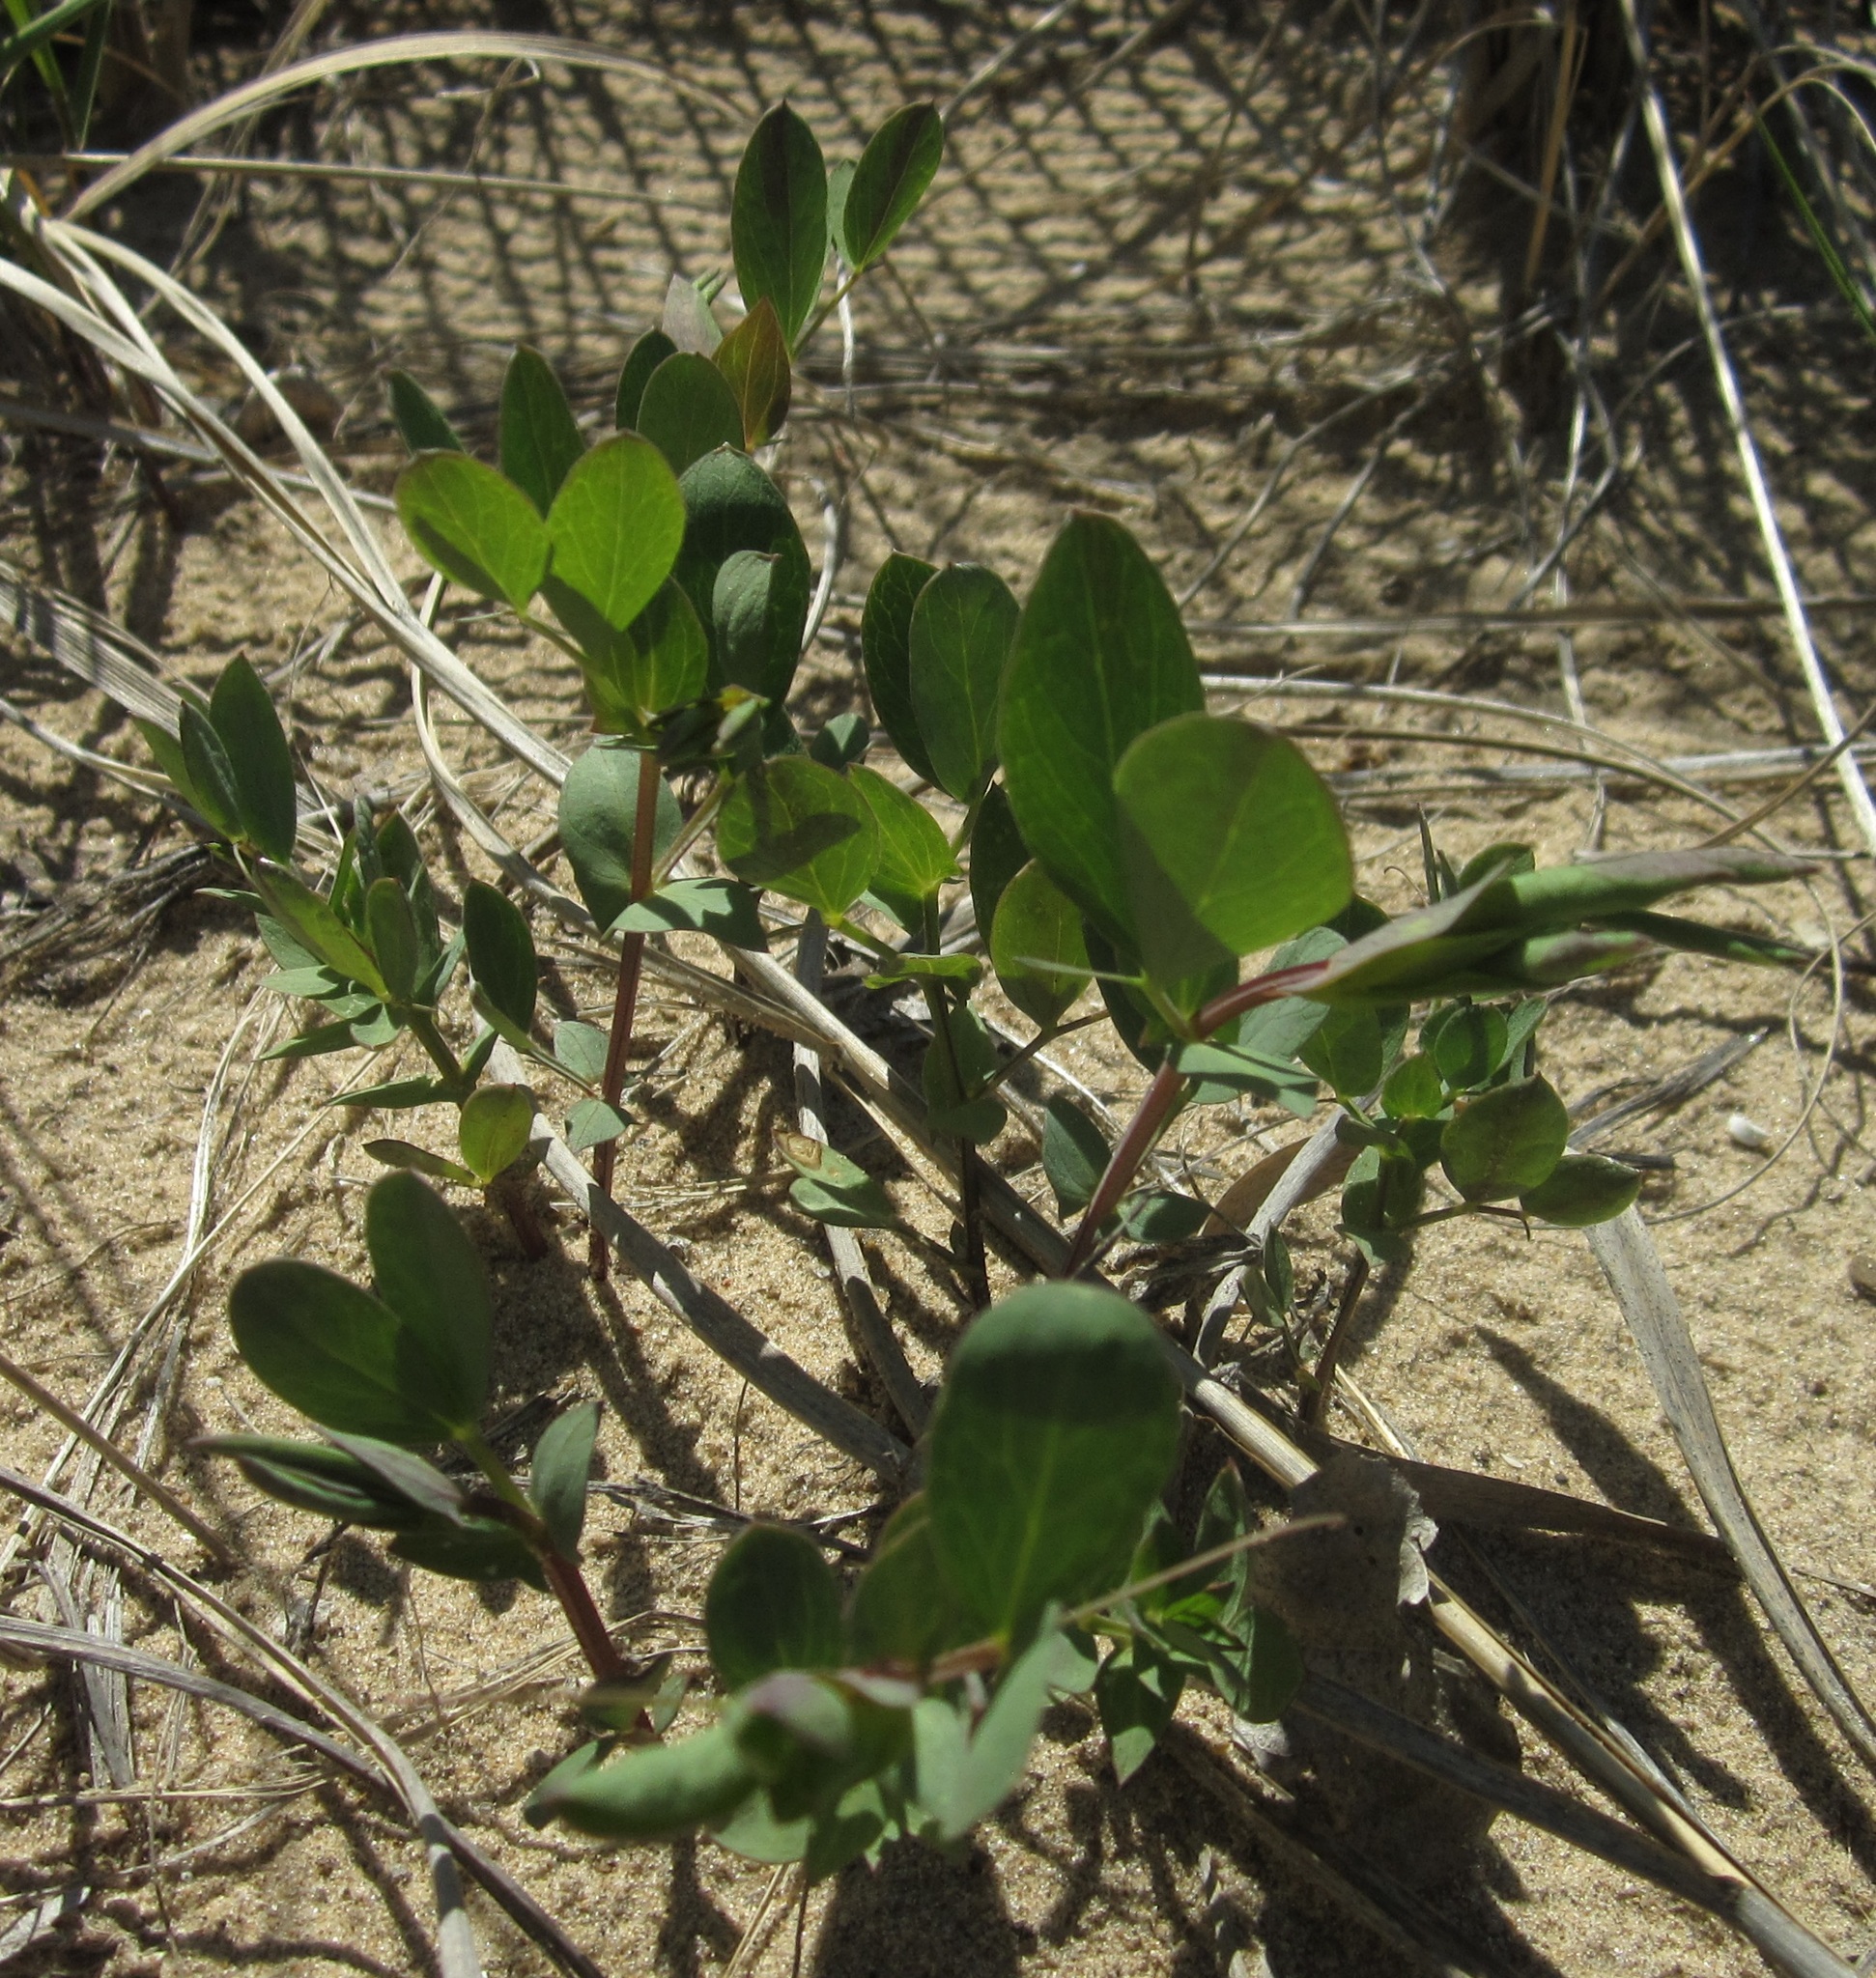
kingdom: Plantae
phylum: Tracheophyta
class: Magnoliopsida
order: Fabales
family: Fabaceae
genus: Lathyrus
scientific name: Lathyrus japonicus
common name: Sea pea
